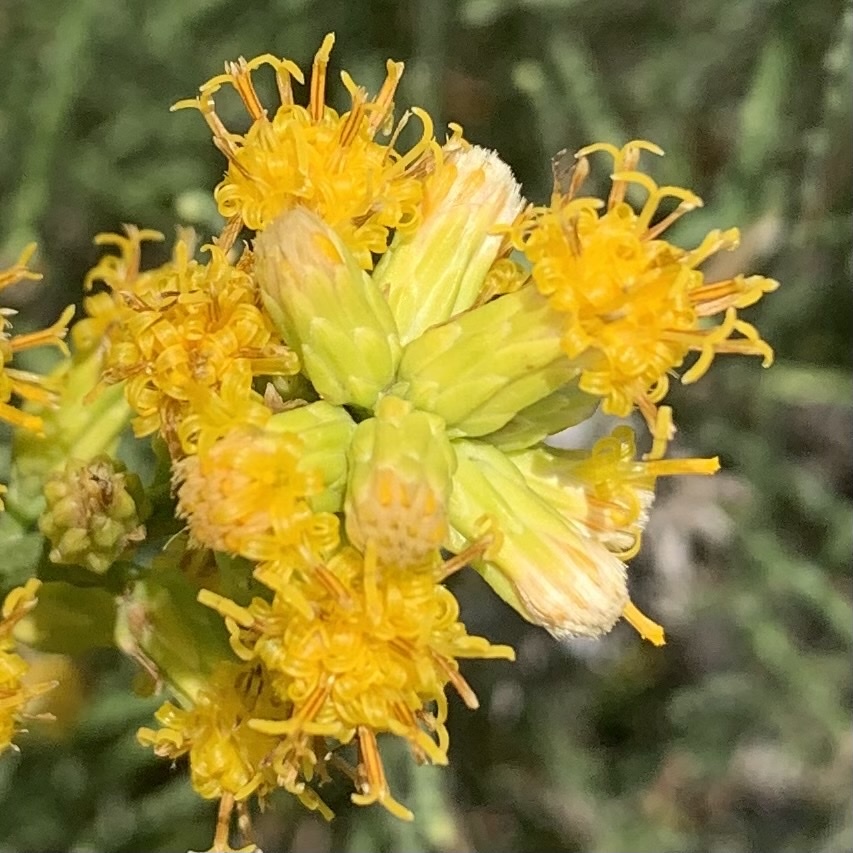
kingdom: Plantae
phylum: Tracheophyta
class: Magnoliopsida
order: Asterales
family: Asteraceae
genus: Lepidospartum
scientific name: Lepidospartum squamatum
